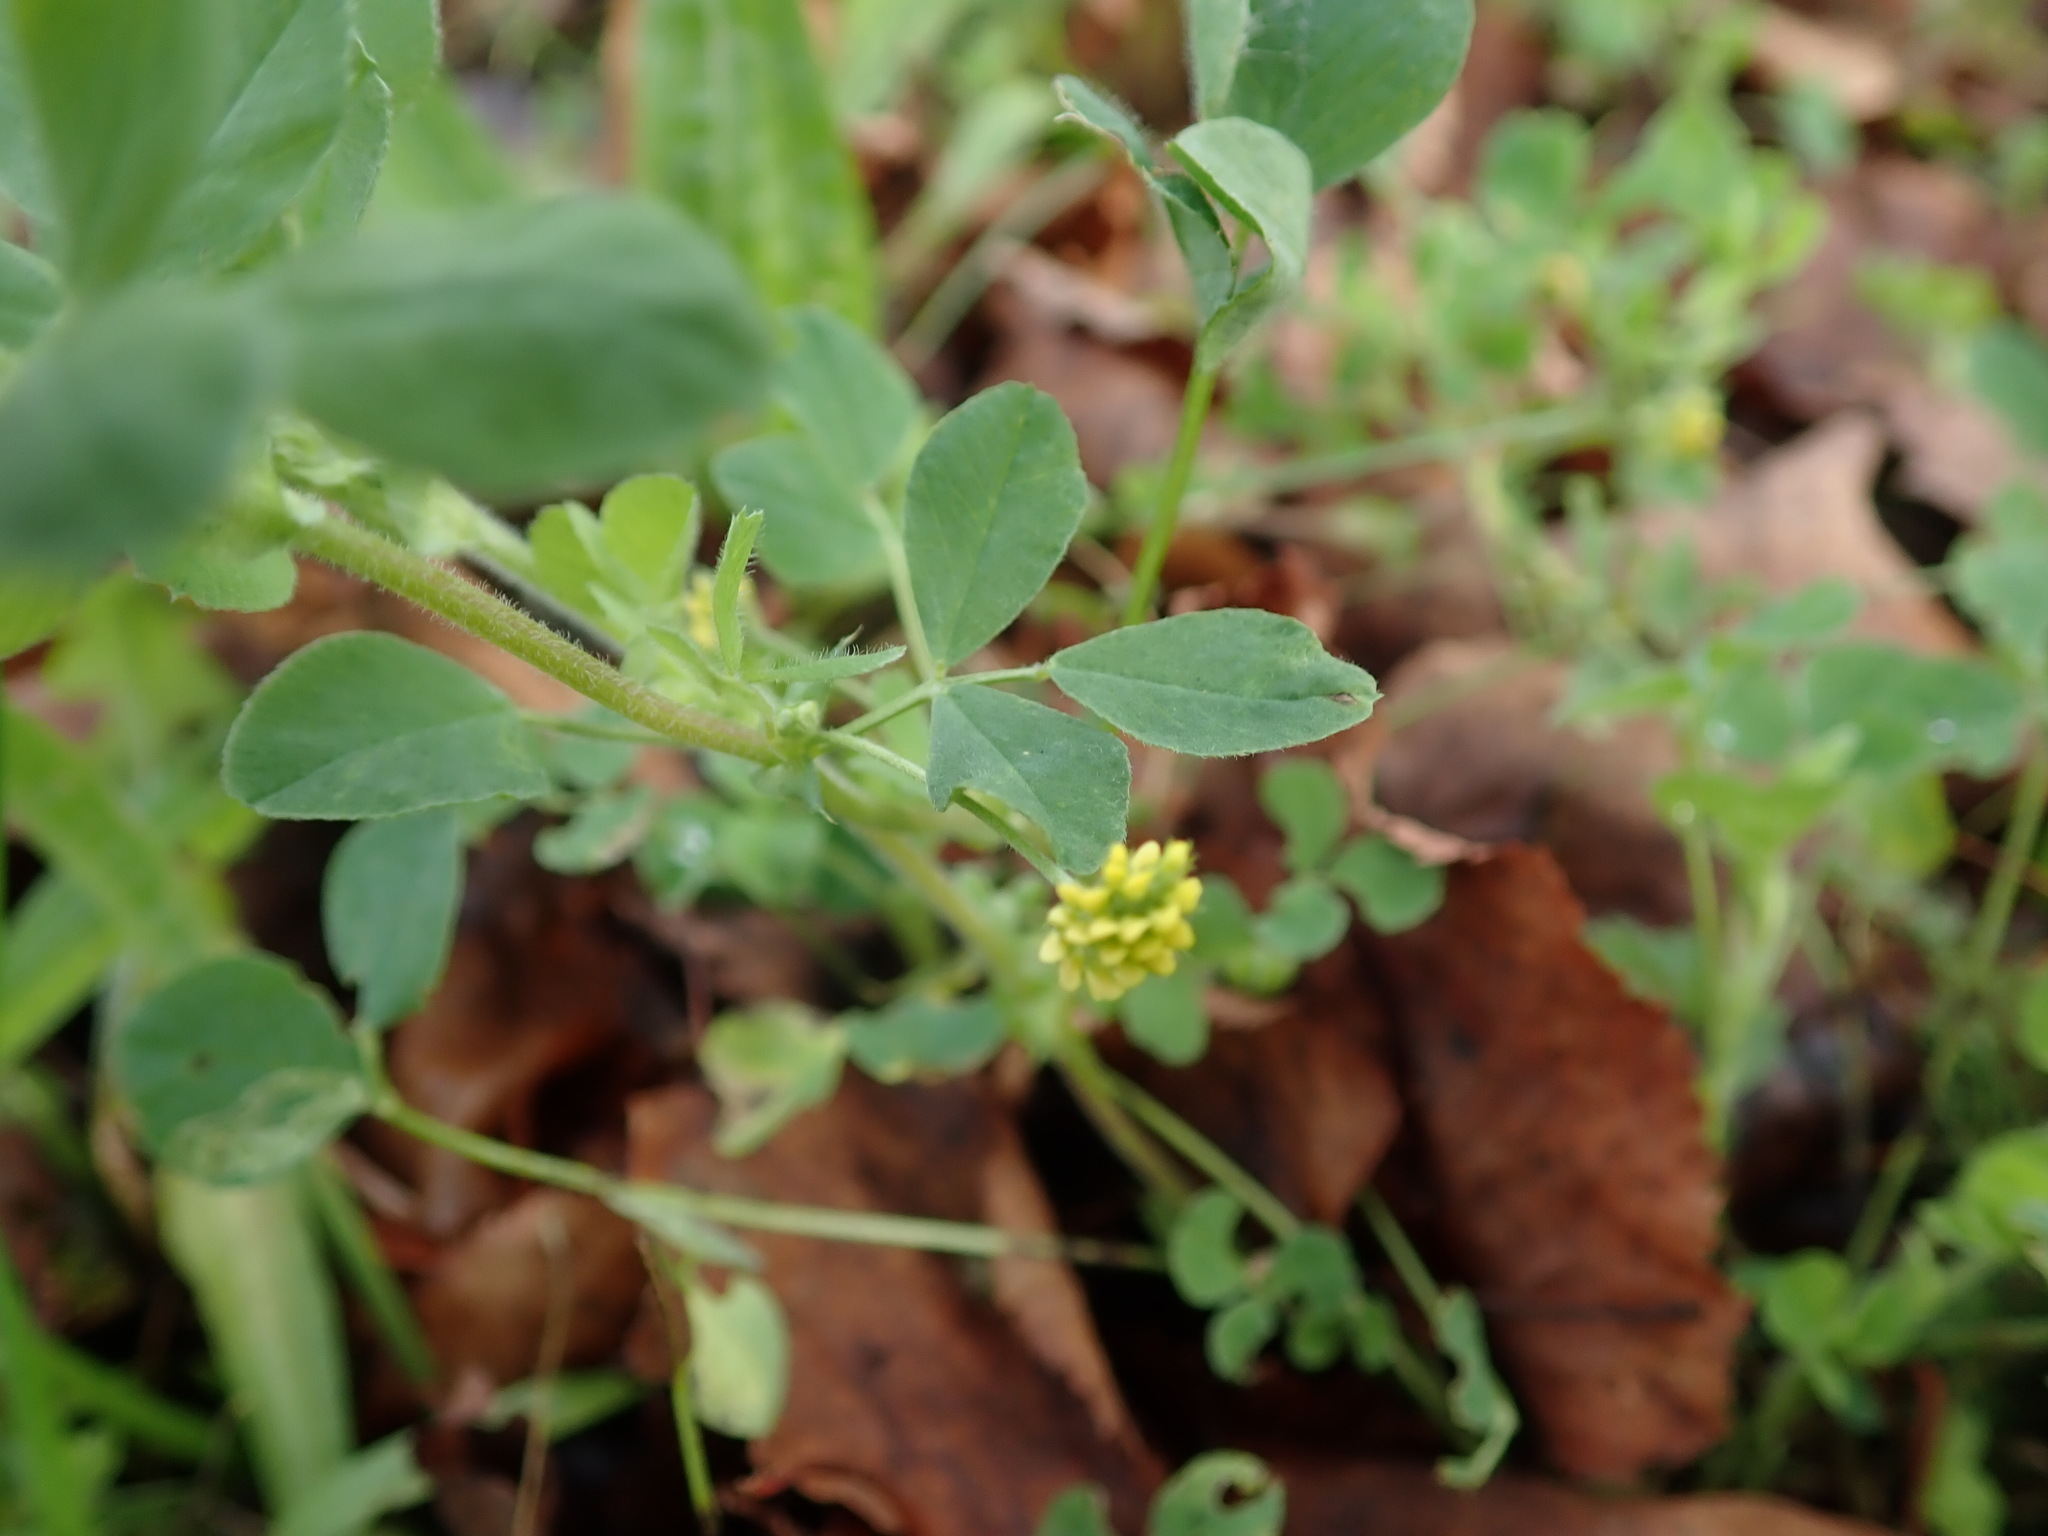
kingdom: Plantae
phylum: Tracheophyta
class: Magnoliopsida
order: Fabales
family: Fabaceae
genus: Medicago
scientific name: Medicago lupulina
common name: Black medick
